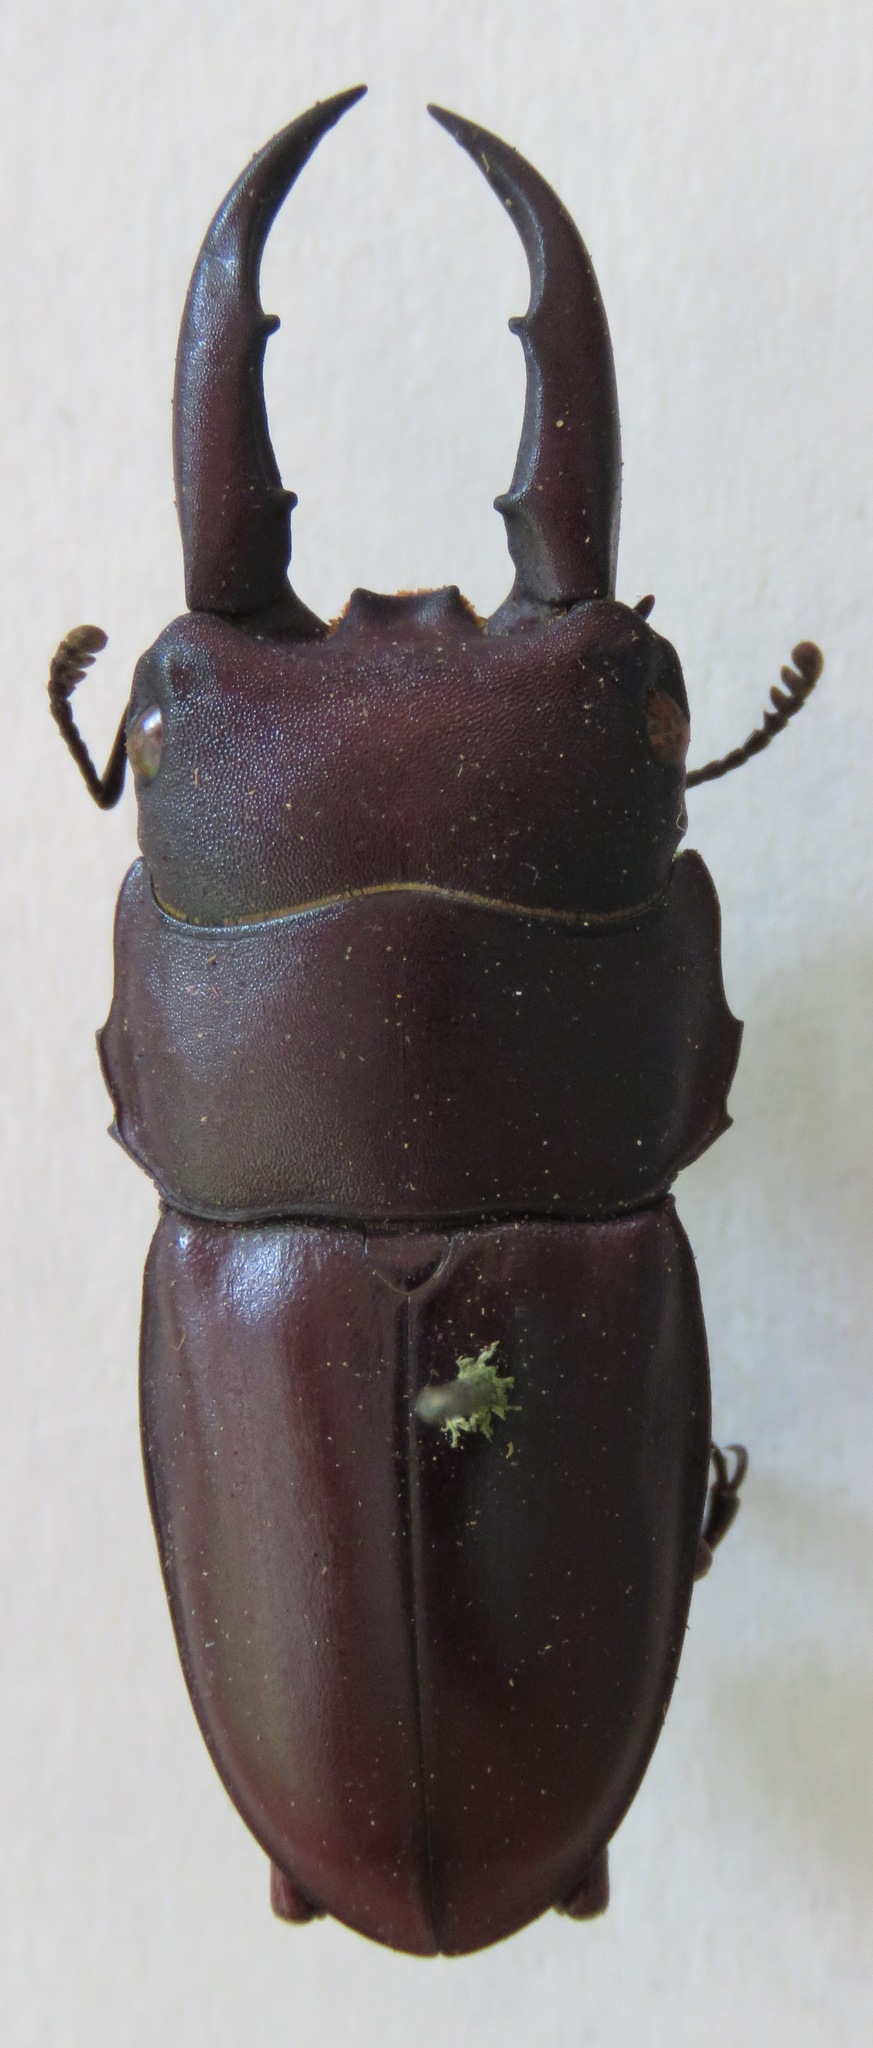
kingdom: Animalia
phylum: Arthropoda
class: Insecta
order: Coleoptera
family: Lucanidae
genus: Dorcus
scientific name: Dorcus saiga
